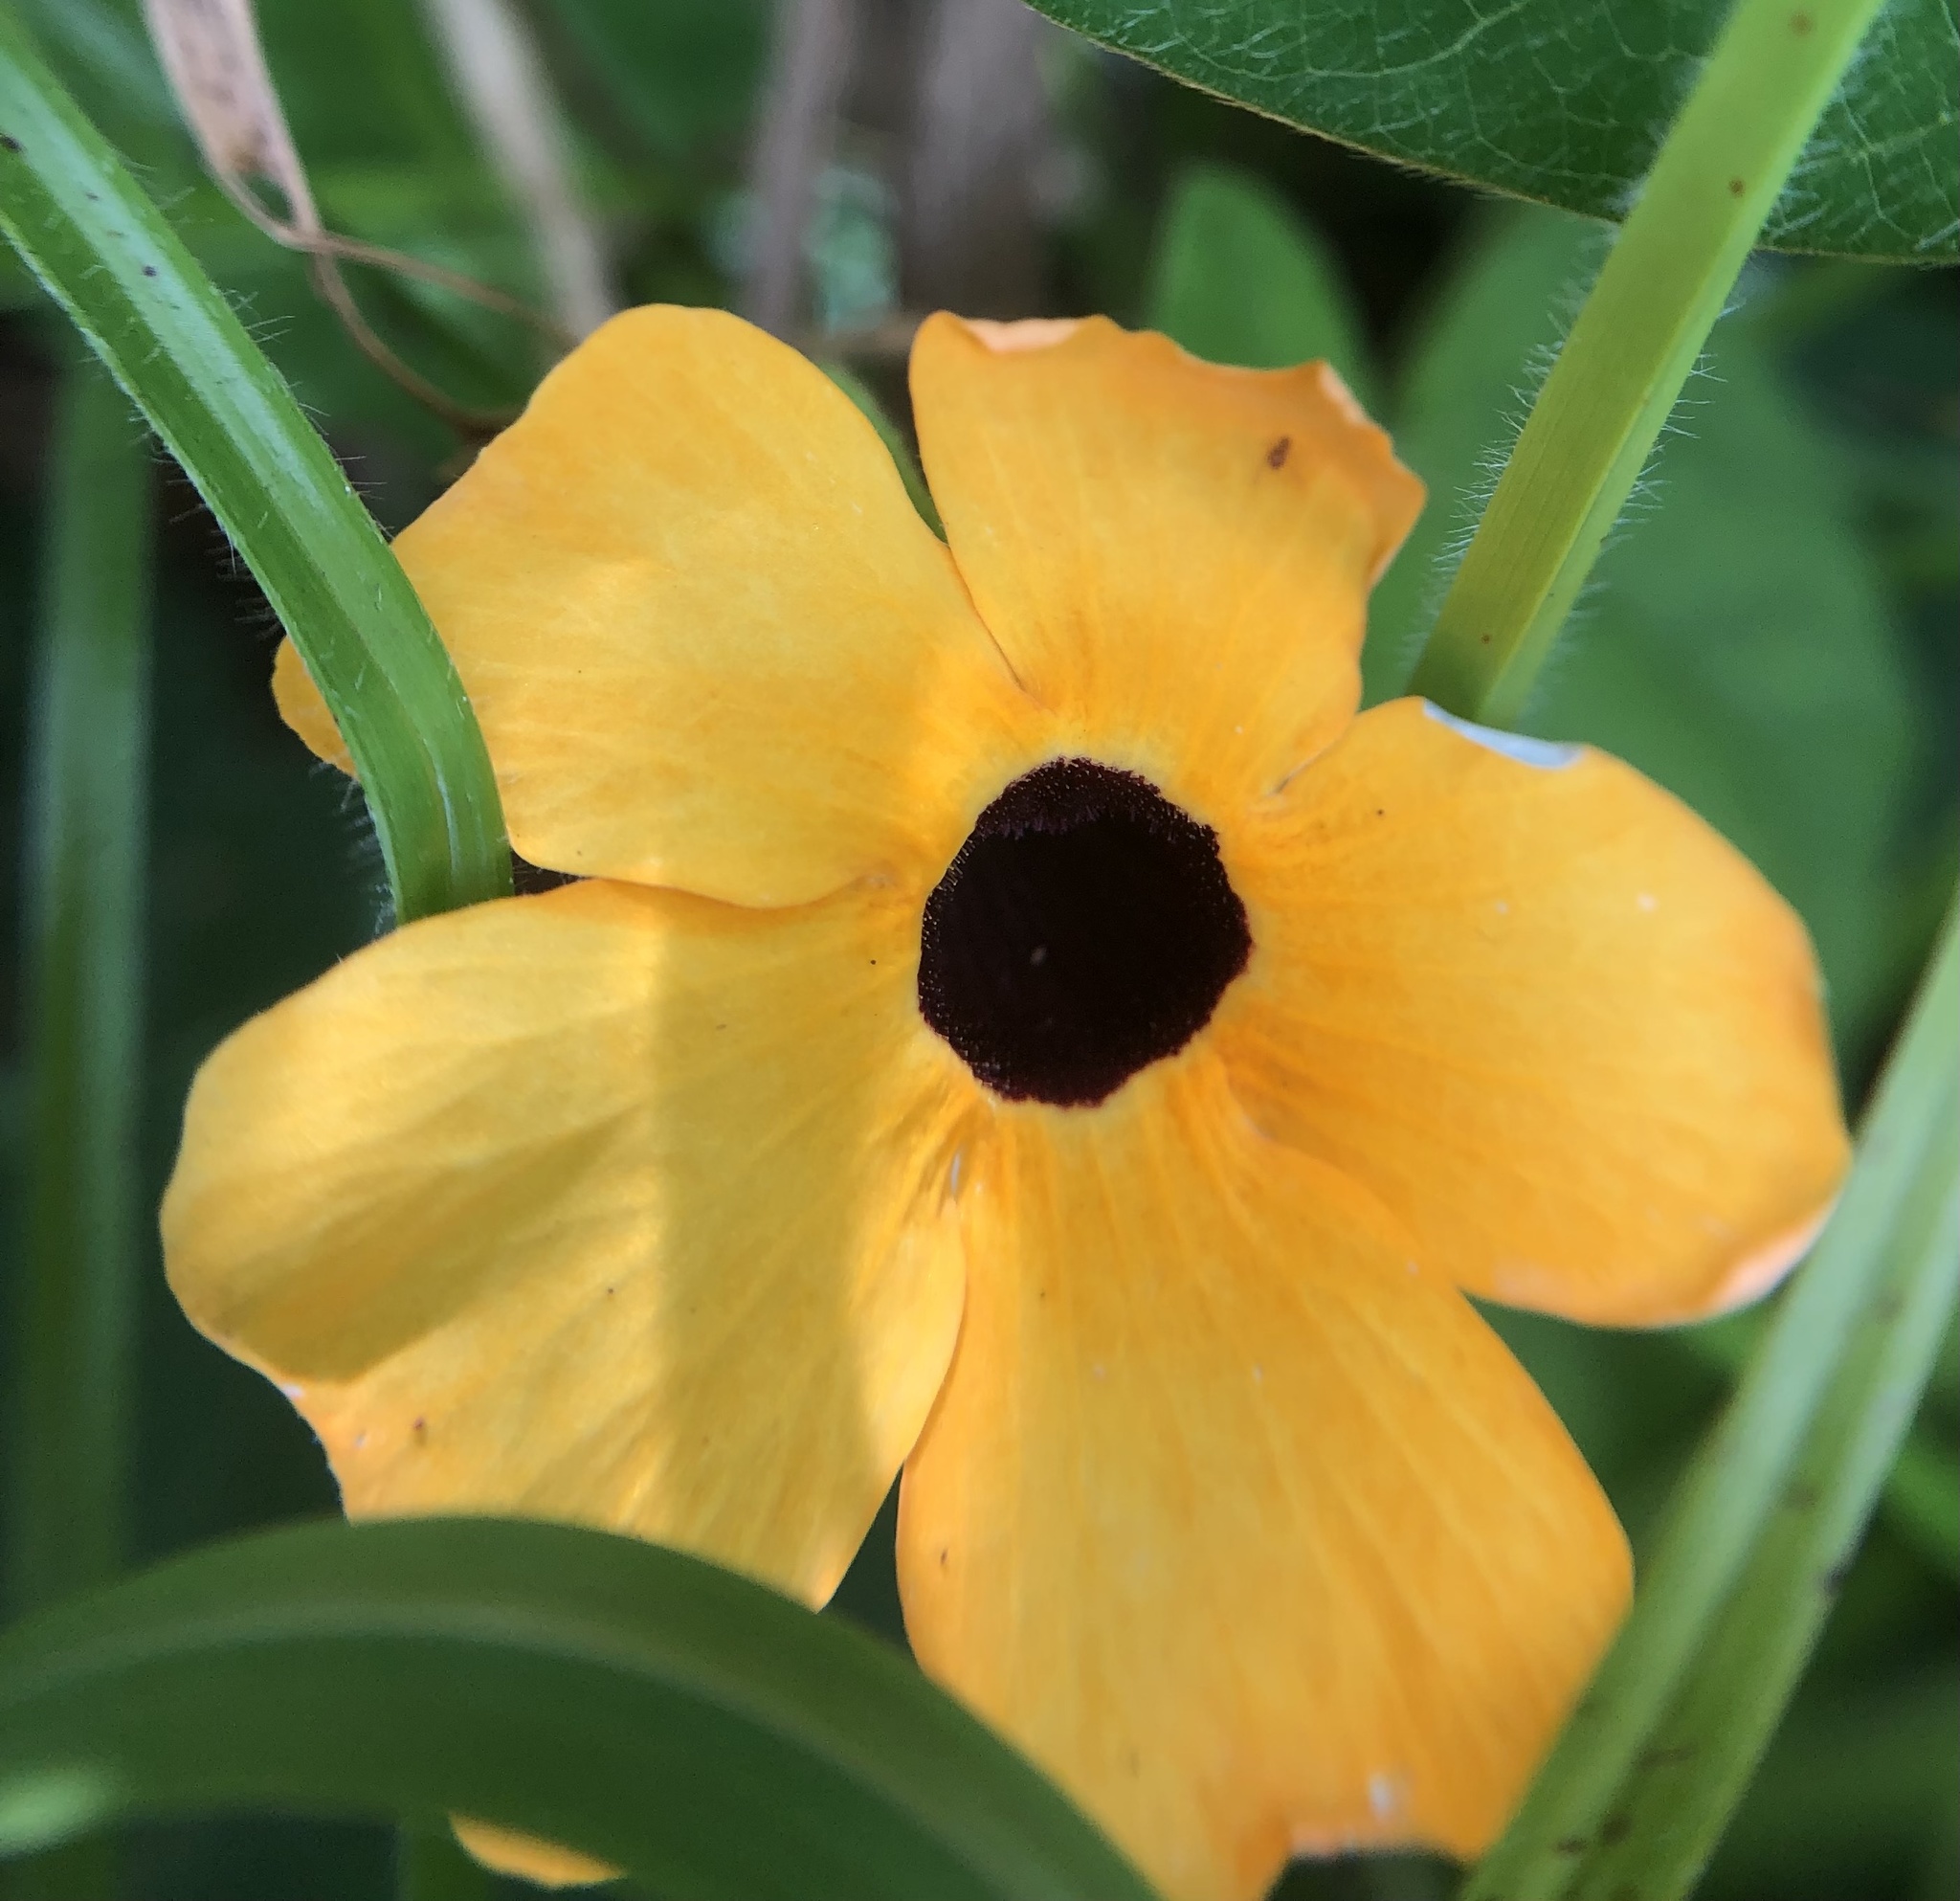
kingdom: Plantae
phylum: Tracheophyta
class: Magnoliopsida
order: Lamiales
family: Acanthaceae
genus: Thunbergia
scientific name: Thunbergia alata
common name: Blackeyed susan vine
